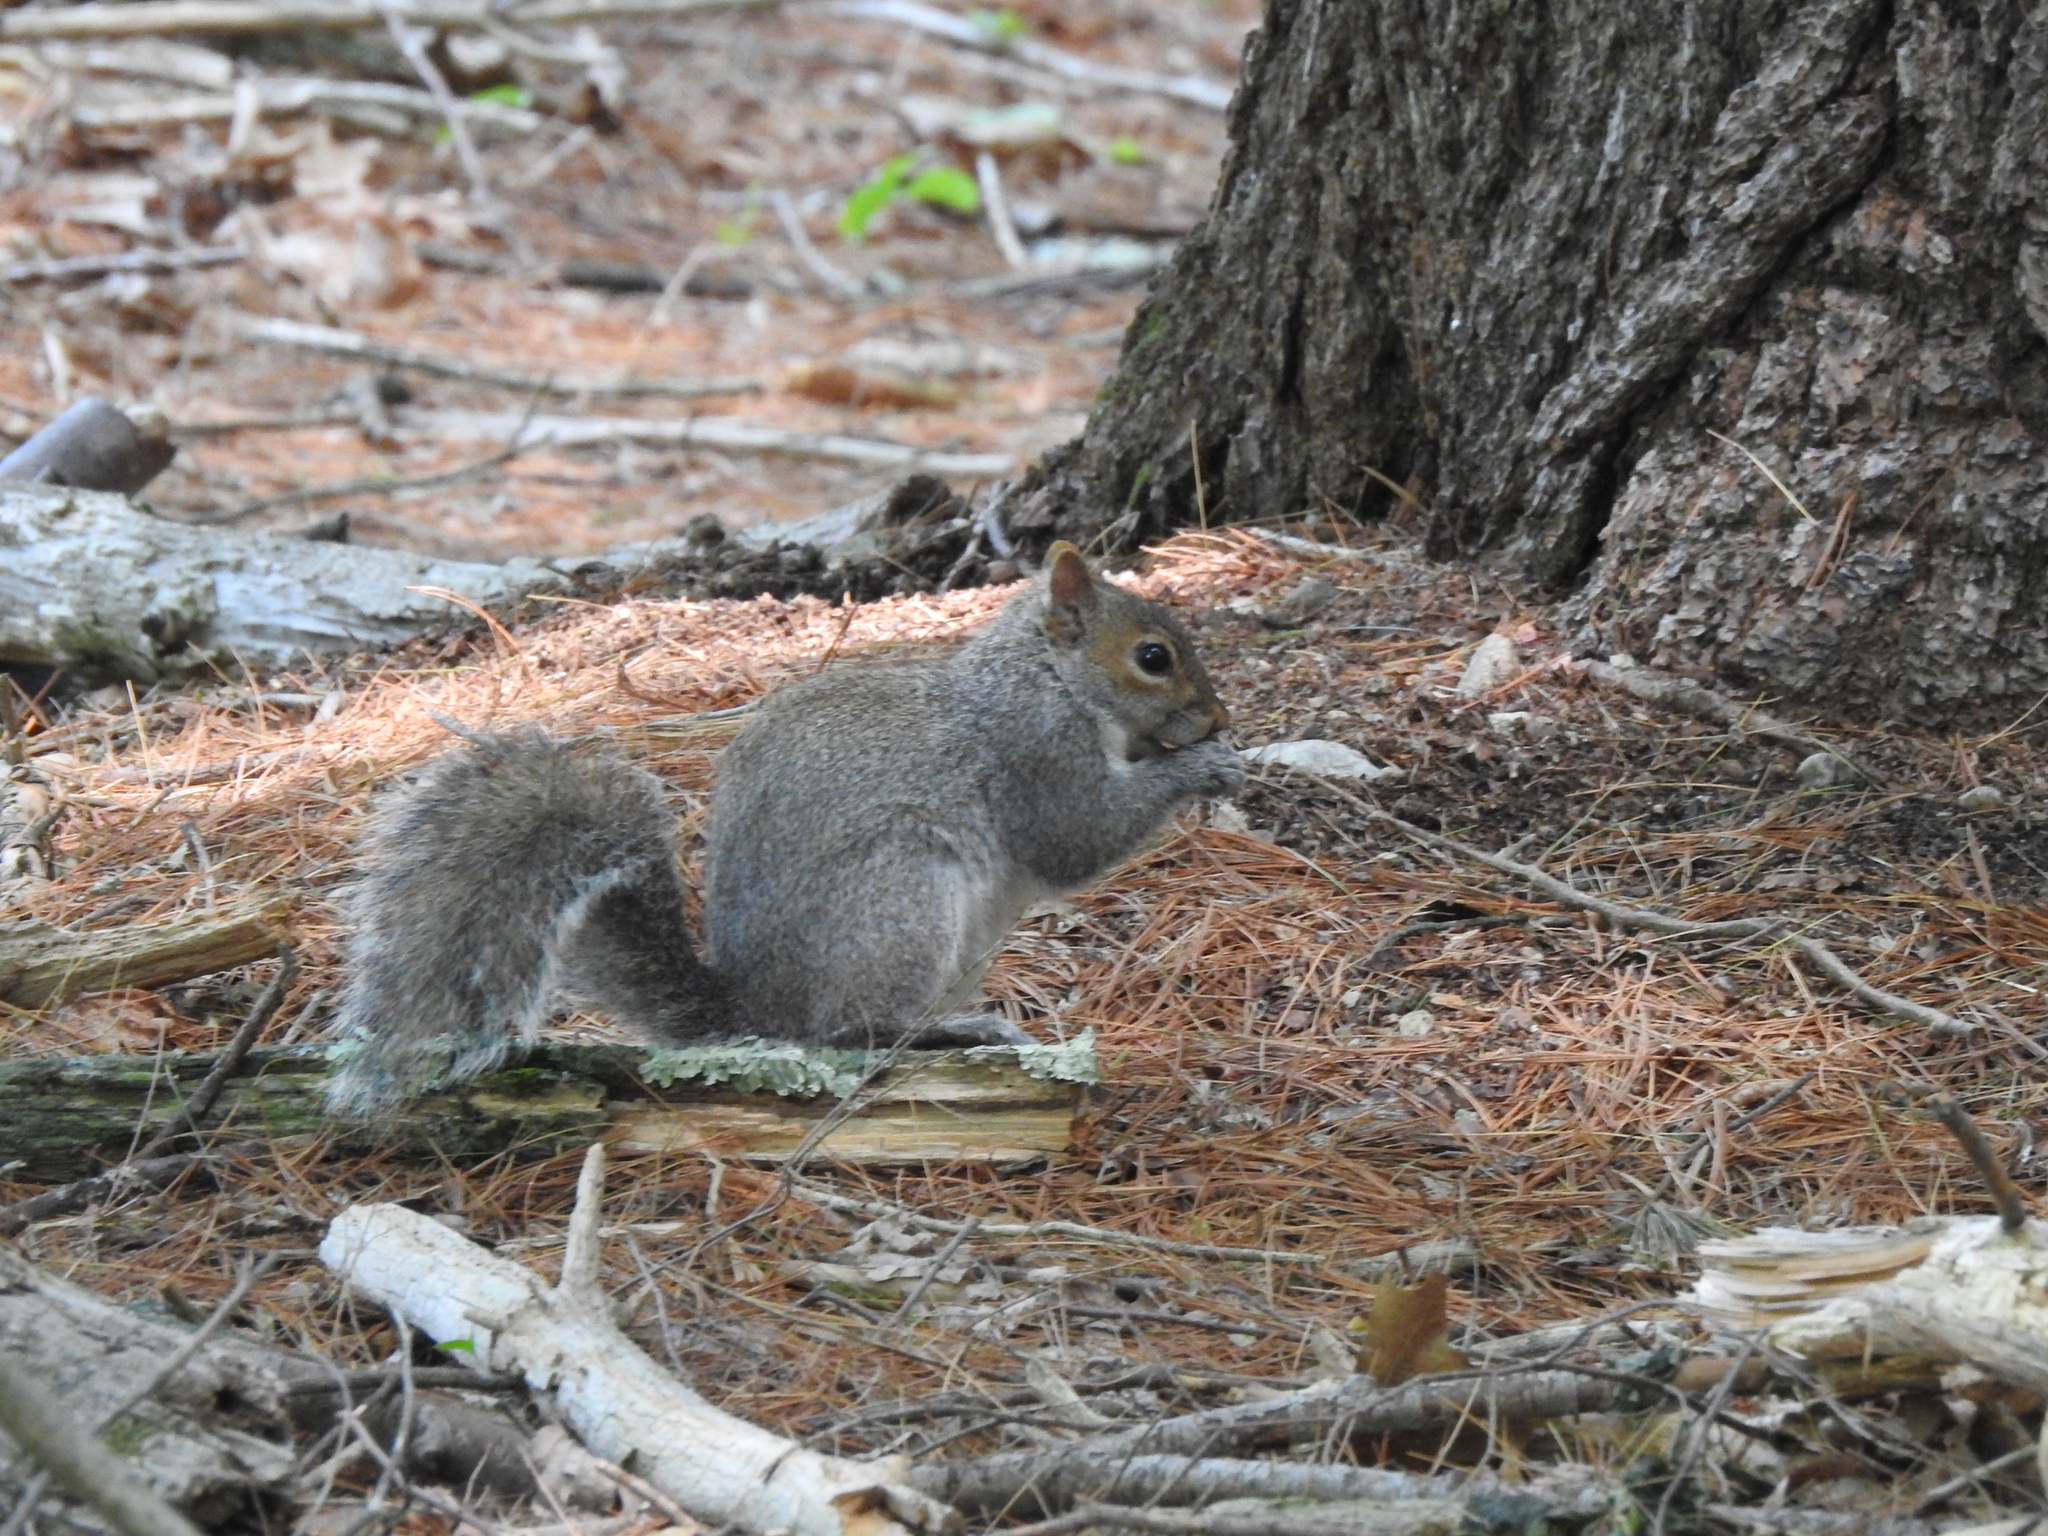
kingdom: Animalia
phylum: Chordata
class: Mammalia
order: Rodentia
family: Sciuridae
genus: Sciurus
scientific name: Sciurus carolinensis
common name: Eastern gray squirrel
